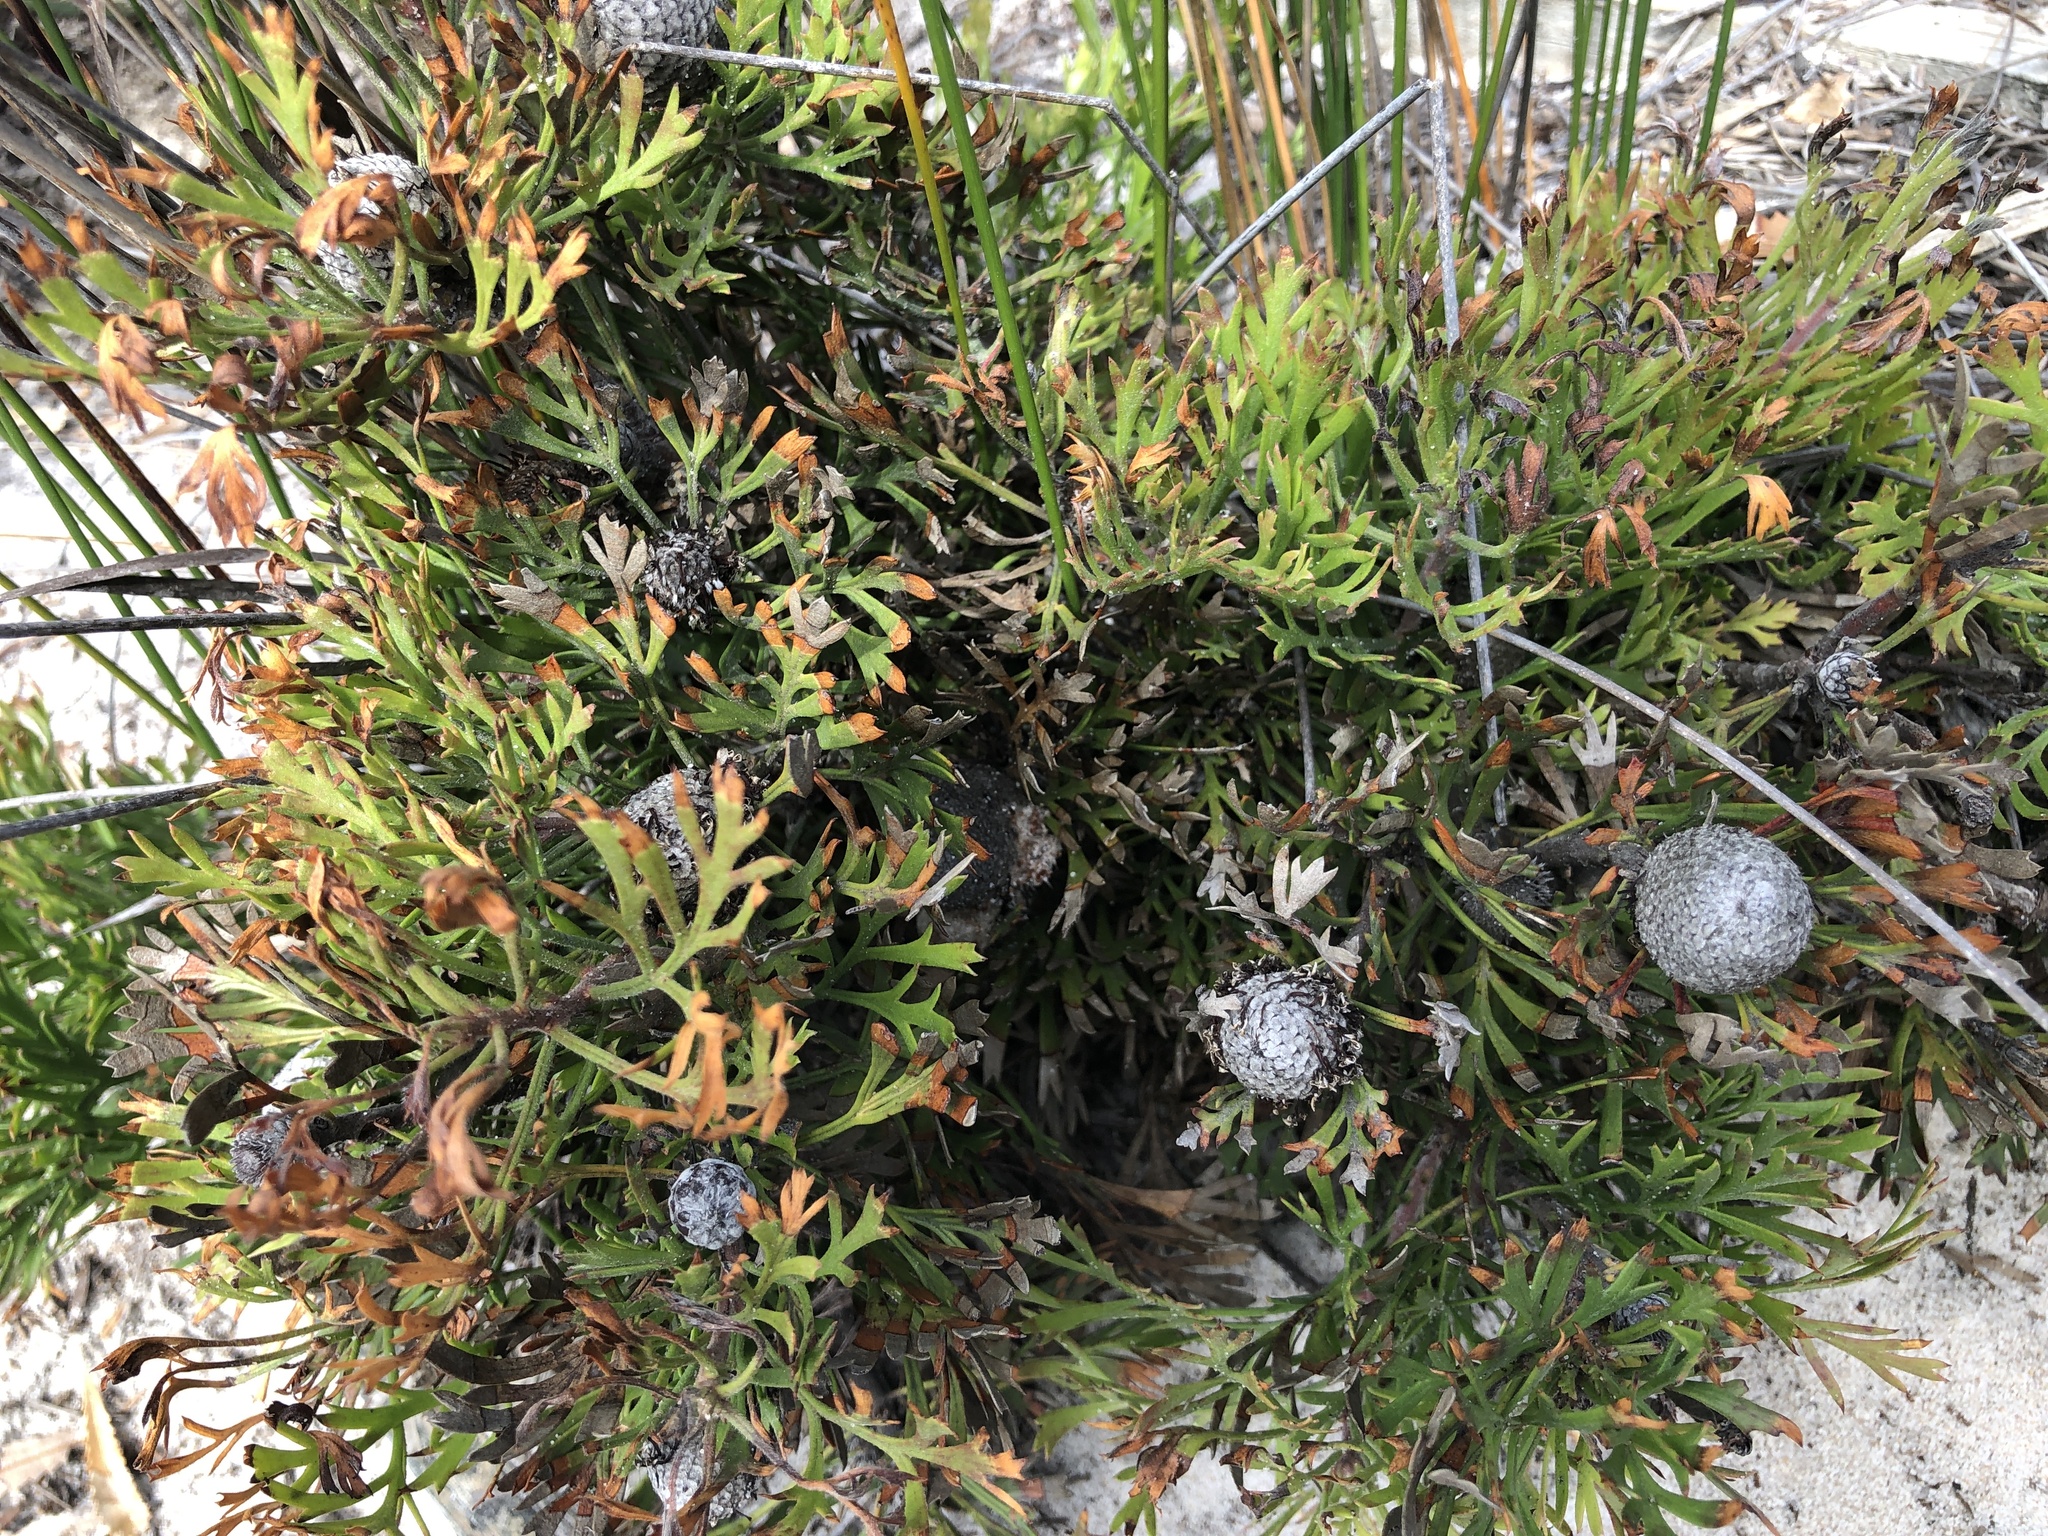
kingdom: Plantae
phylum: Tracheophyta
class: Magnoliopsida
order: Proteales
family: Proteaceae
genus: Isopogon
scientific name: Isopogon anemonifolius
